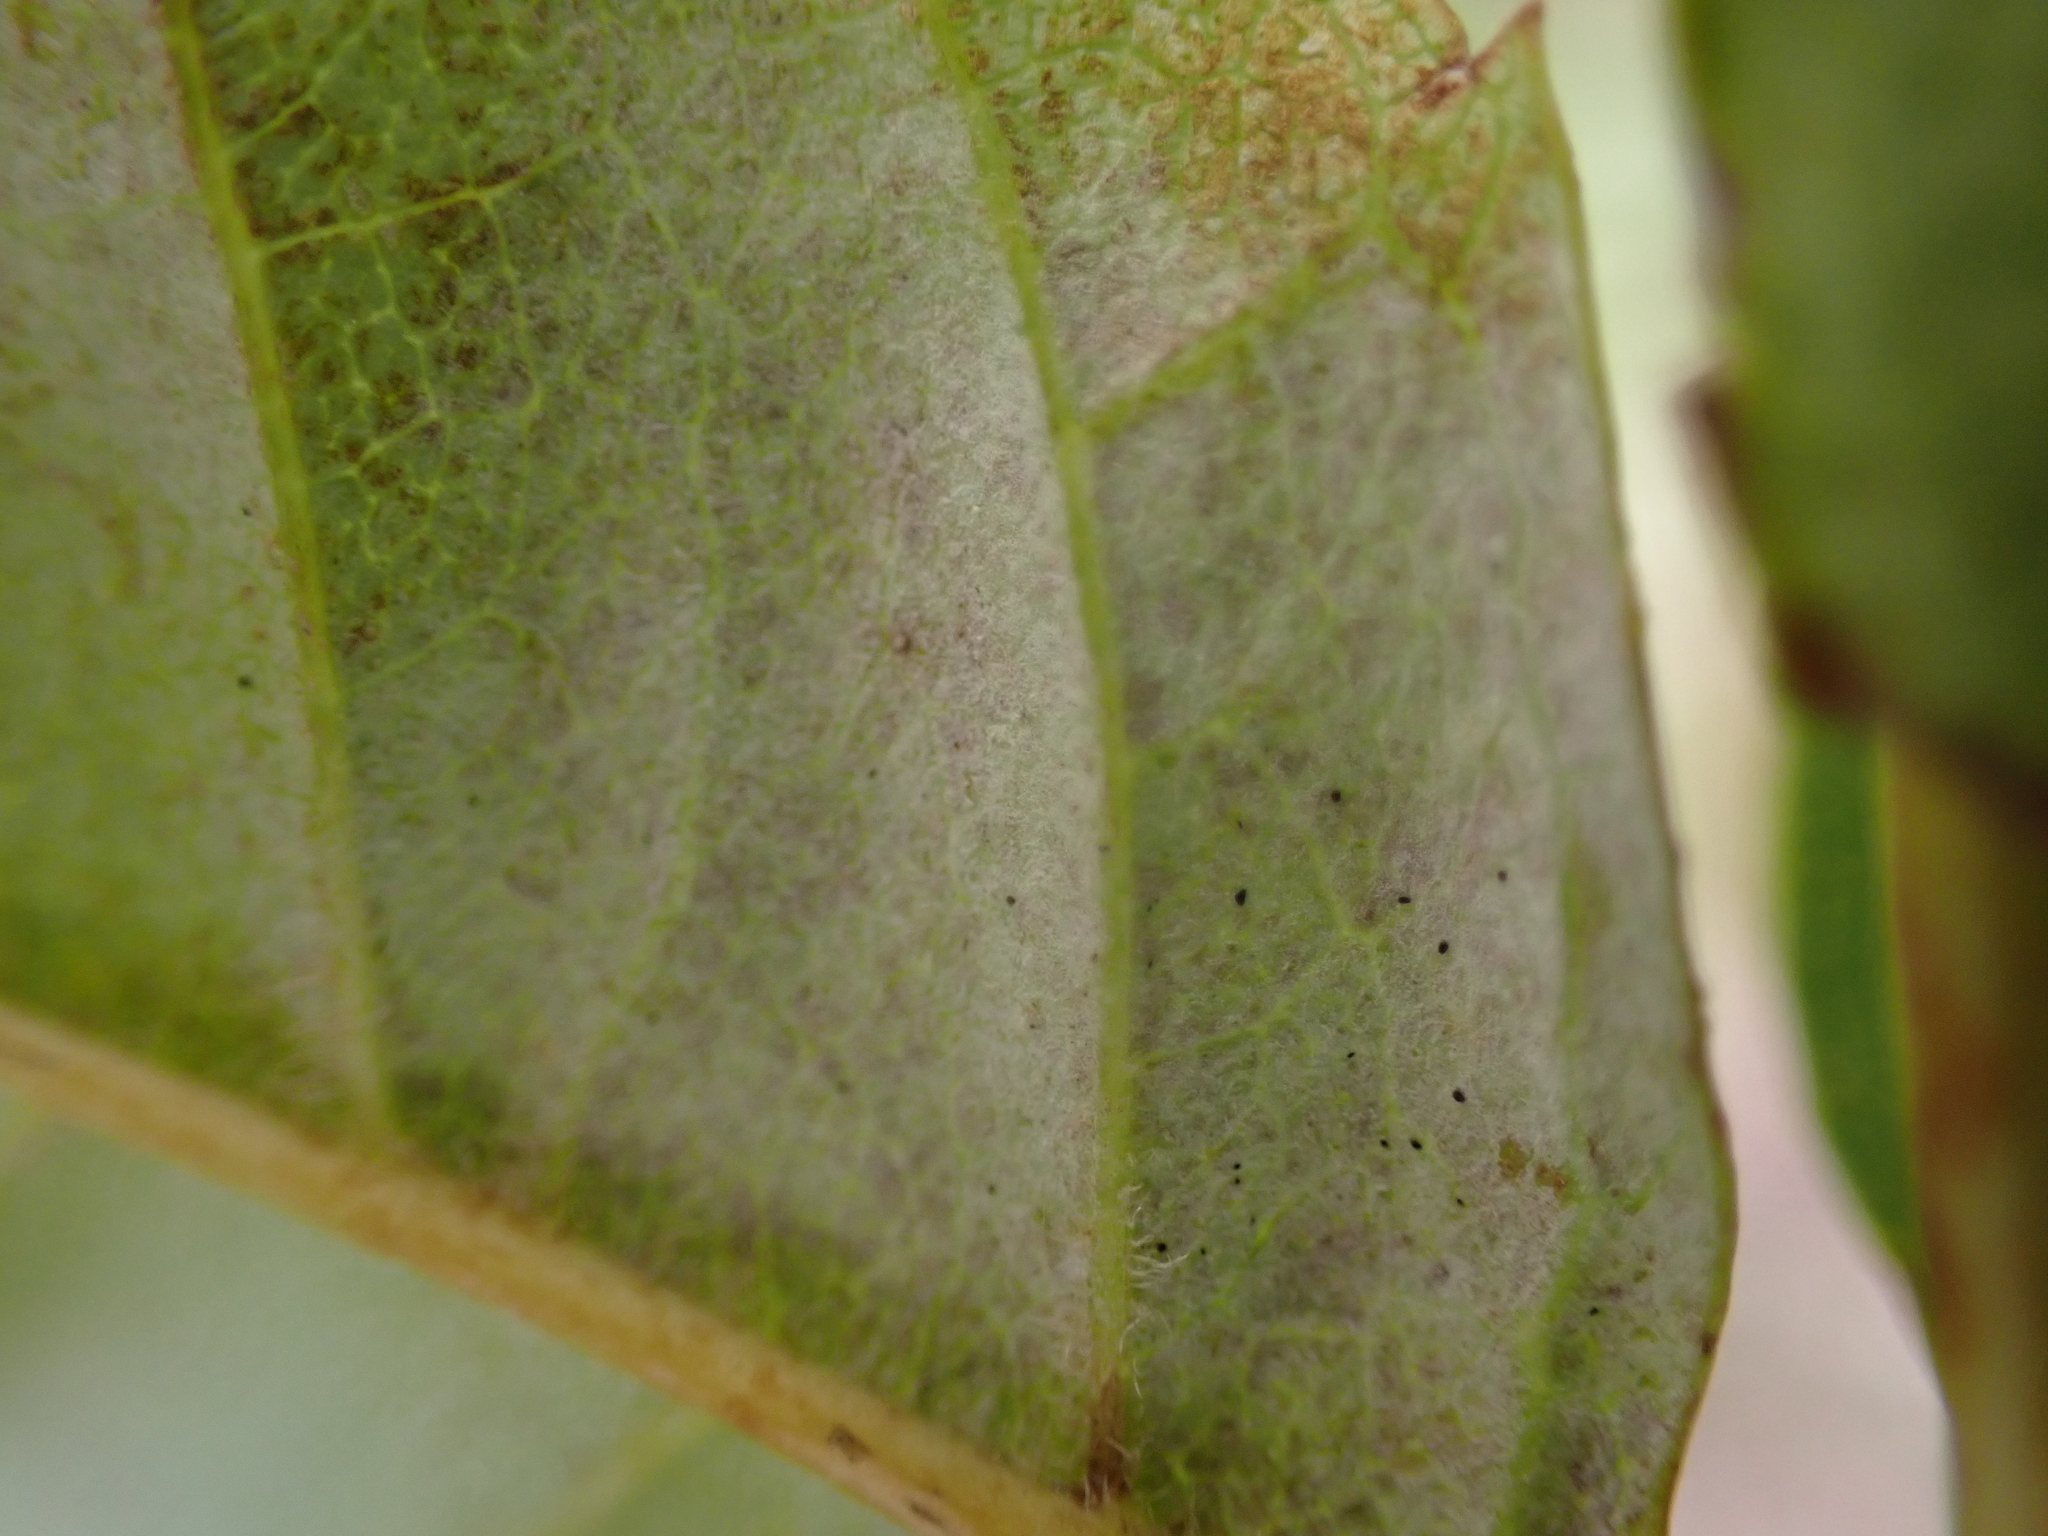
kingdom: Fungi
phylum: Ascomycota
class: Leotiomycetes
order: Helotiales
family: Erysiphaceae
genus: Phyllactinia
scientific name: Phyllactinia fraxini
